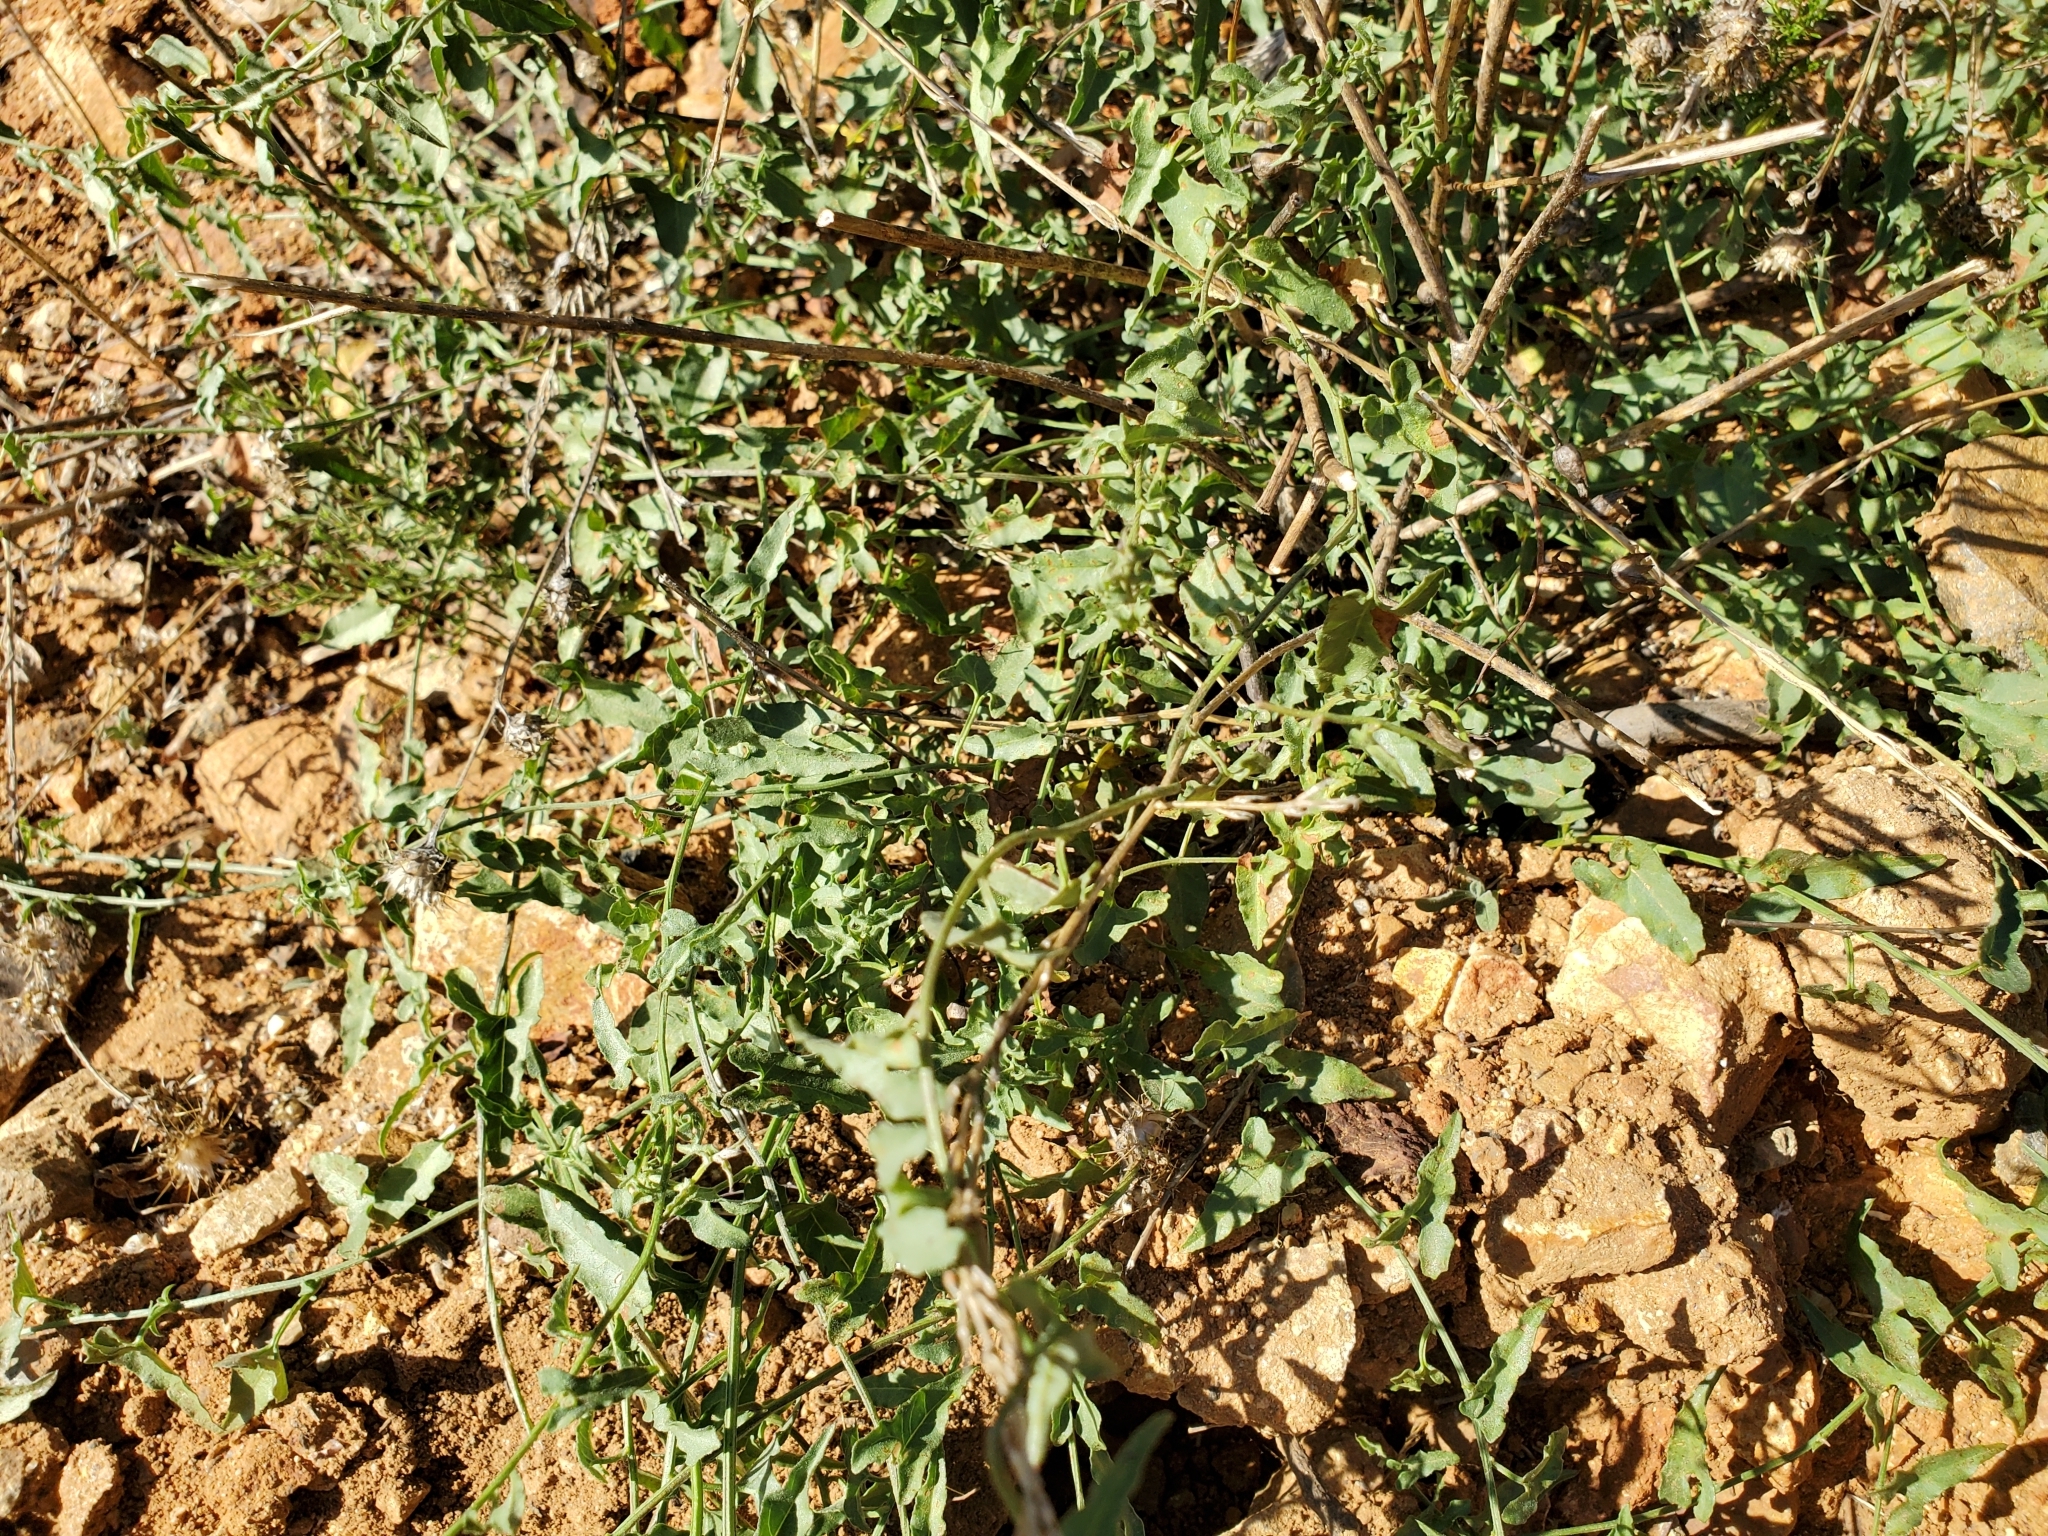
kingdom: Plantae
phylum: Tracheophyta
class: Magnoliopsida
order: Solanales
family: Convolvulaceae
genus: Calystegia
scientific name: Calystegia macrostegia
